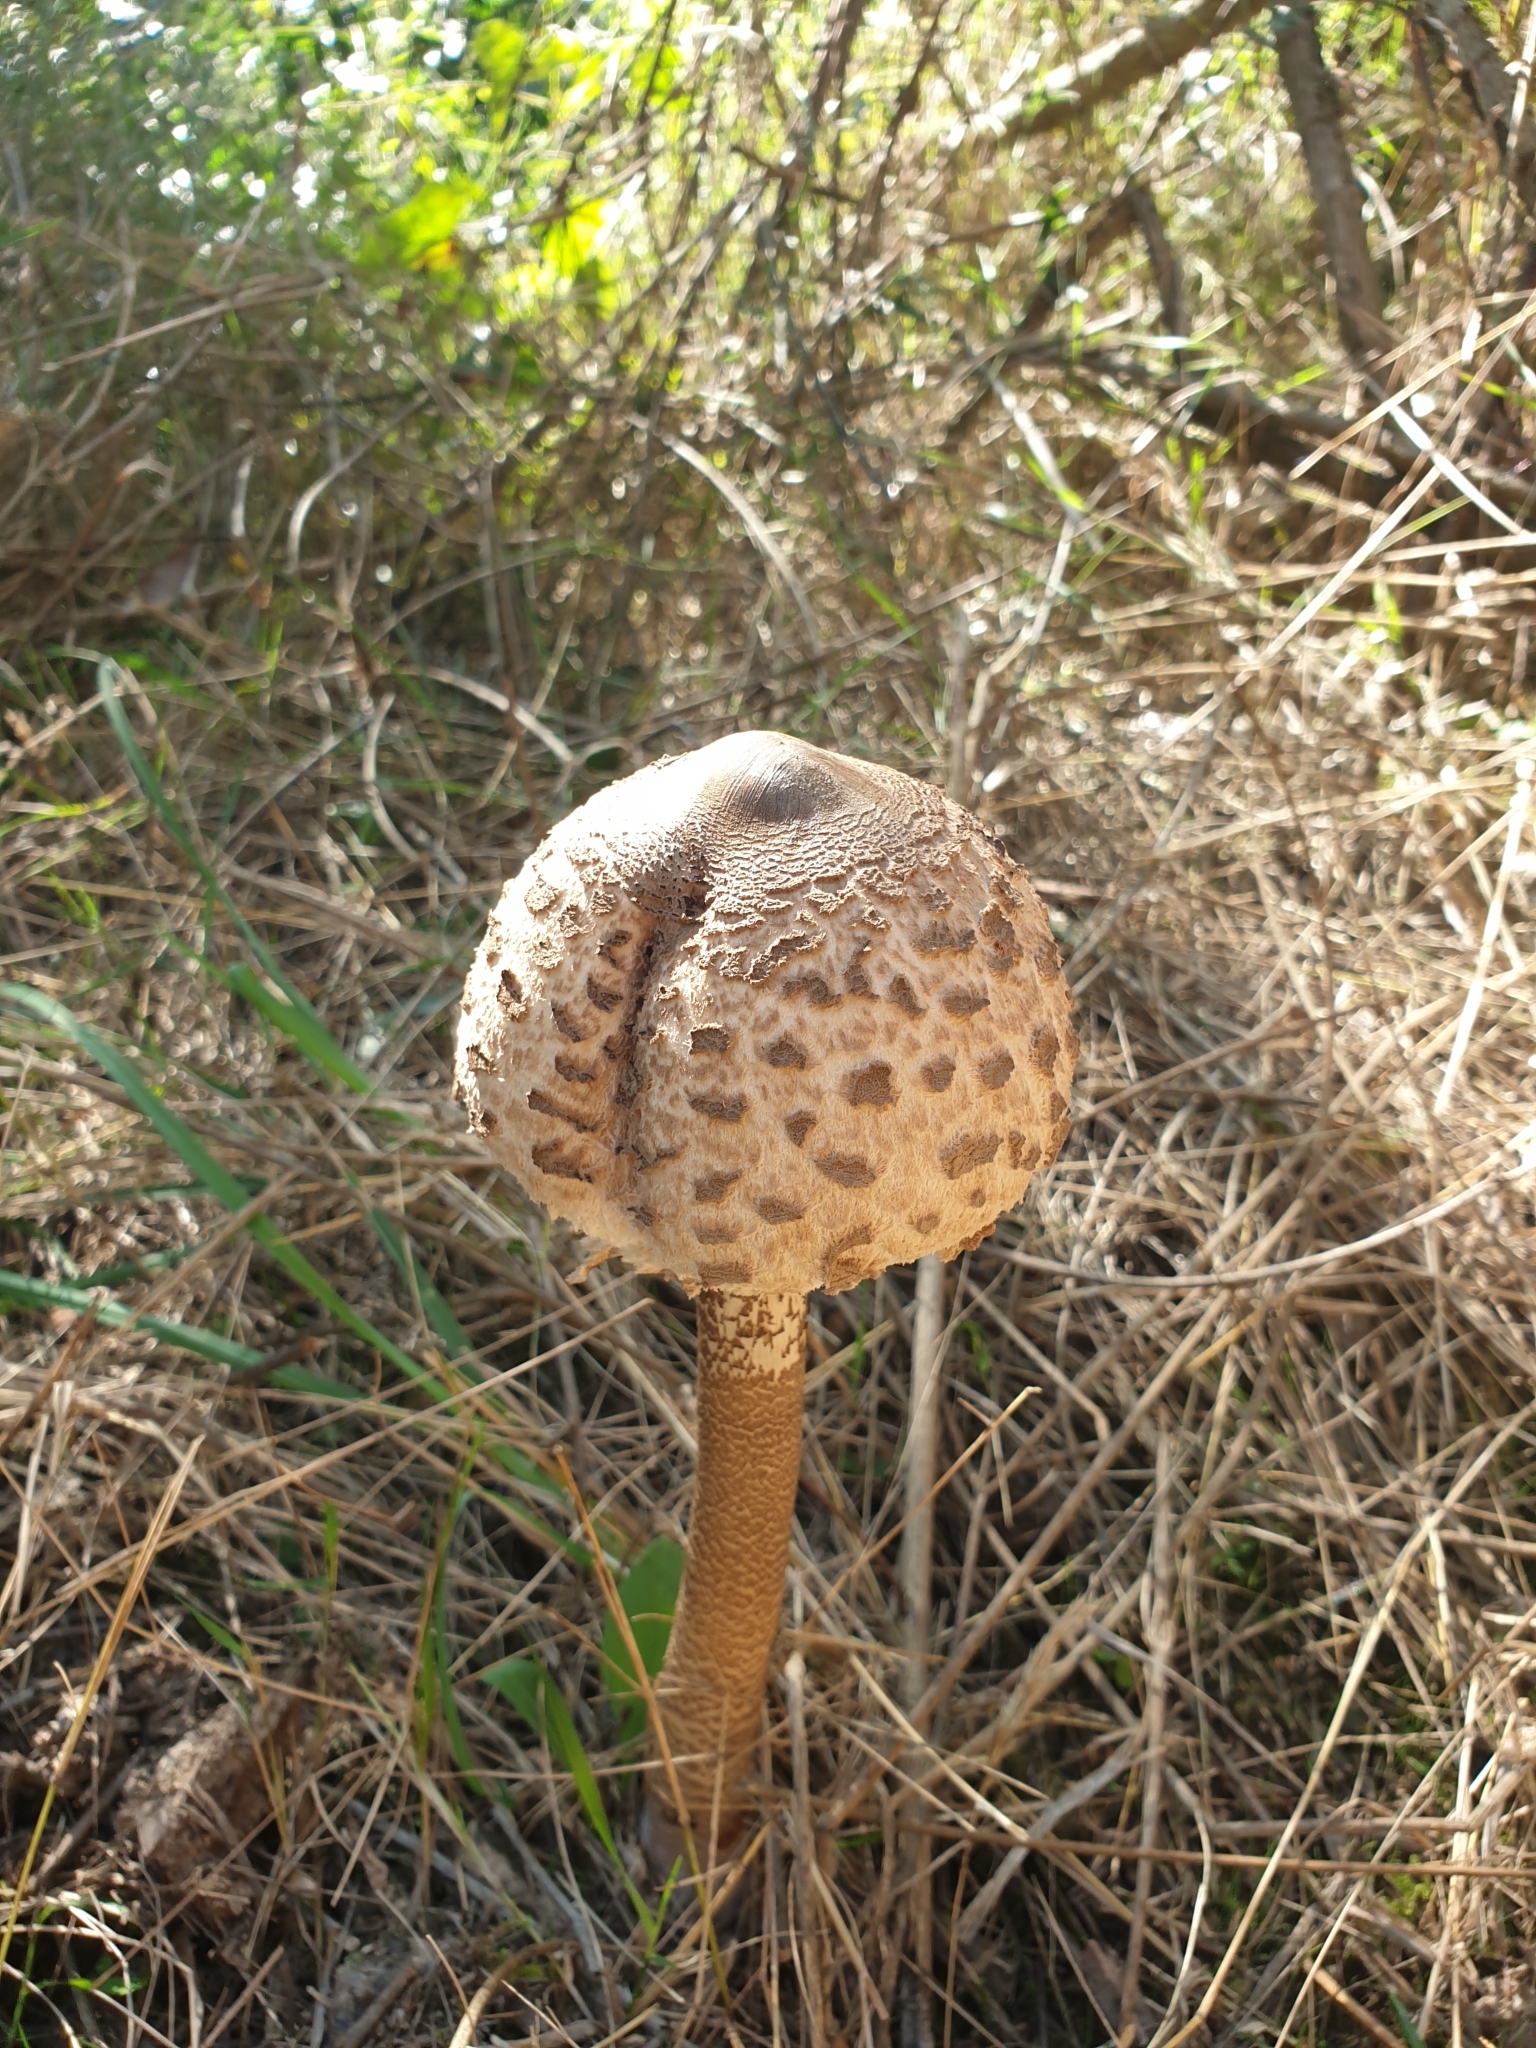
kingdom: Fungi
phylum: Basidiomycota
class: Agaricomycetes
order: Agaricales
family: Agaricaceae
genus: Macrolepiota
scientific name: Macrolepiota procera
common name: Parasol
